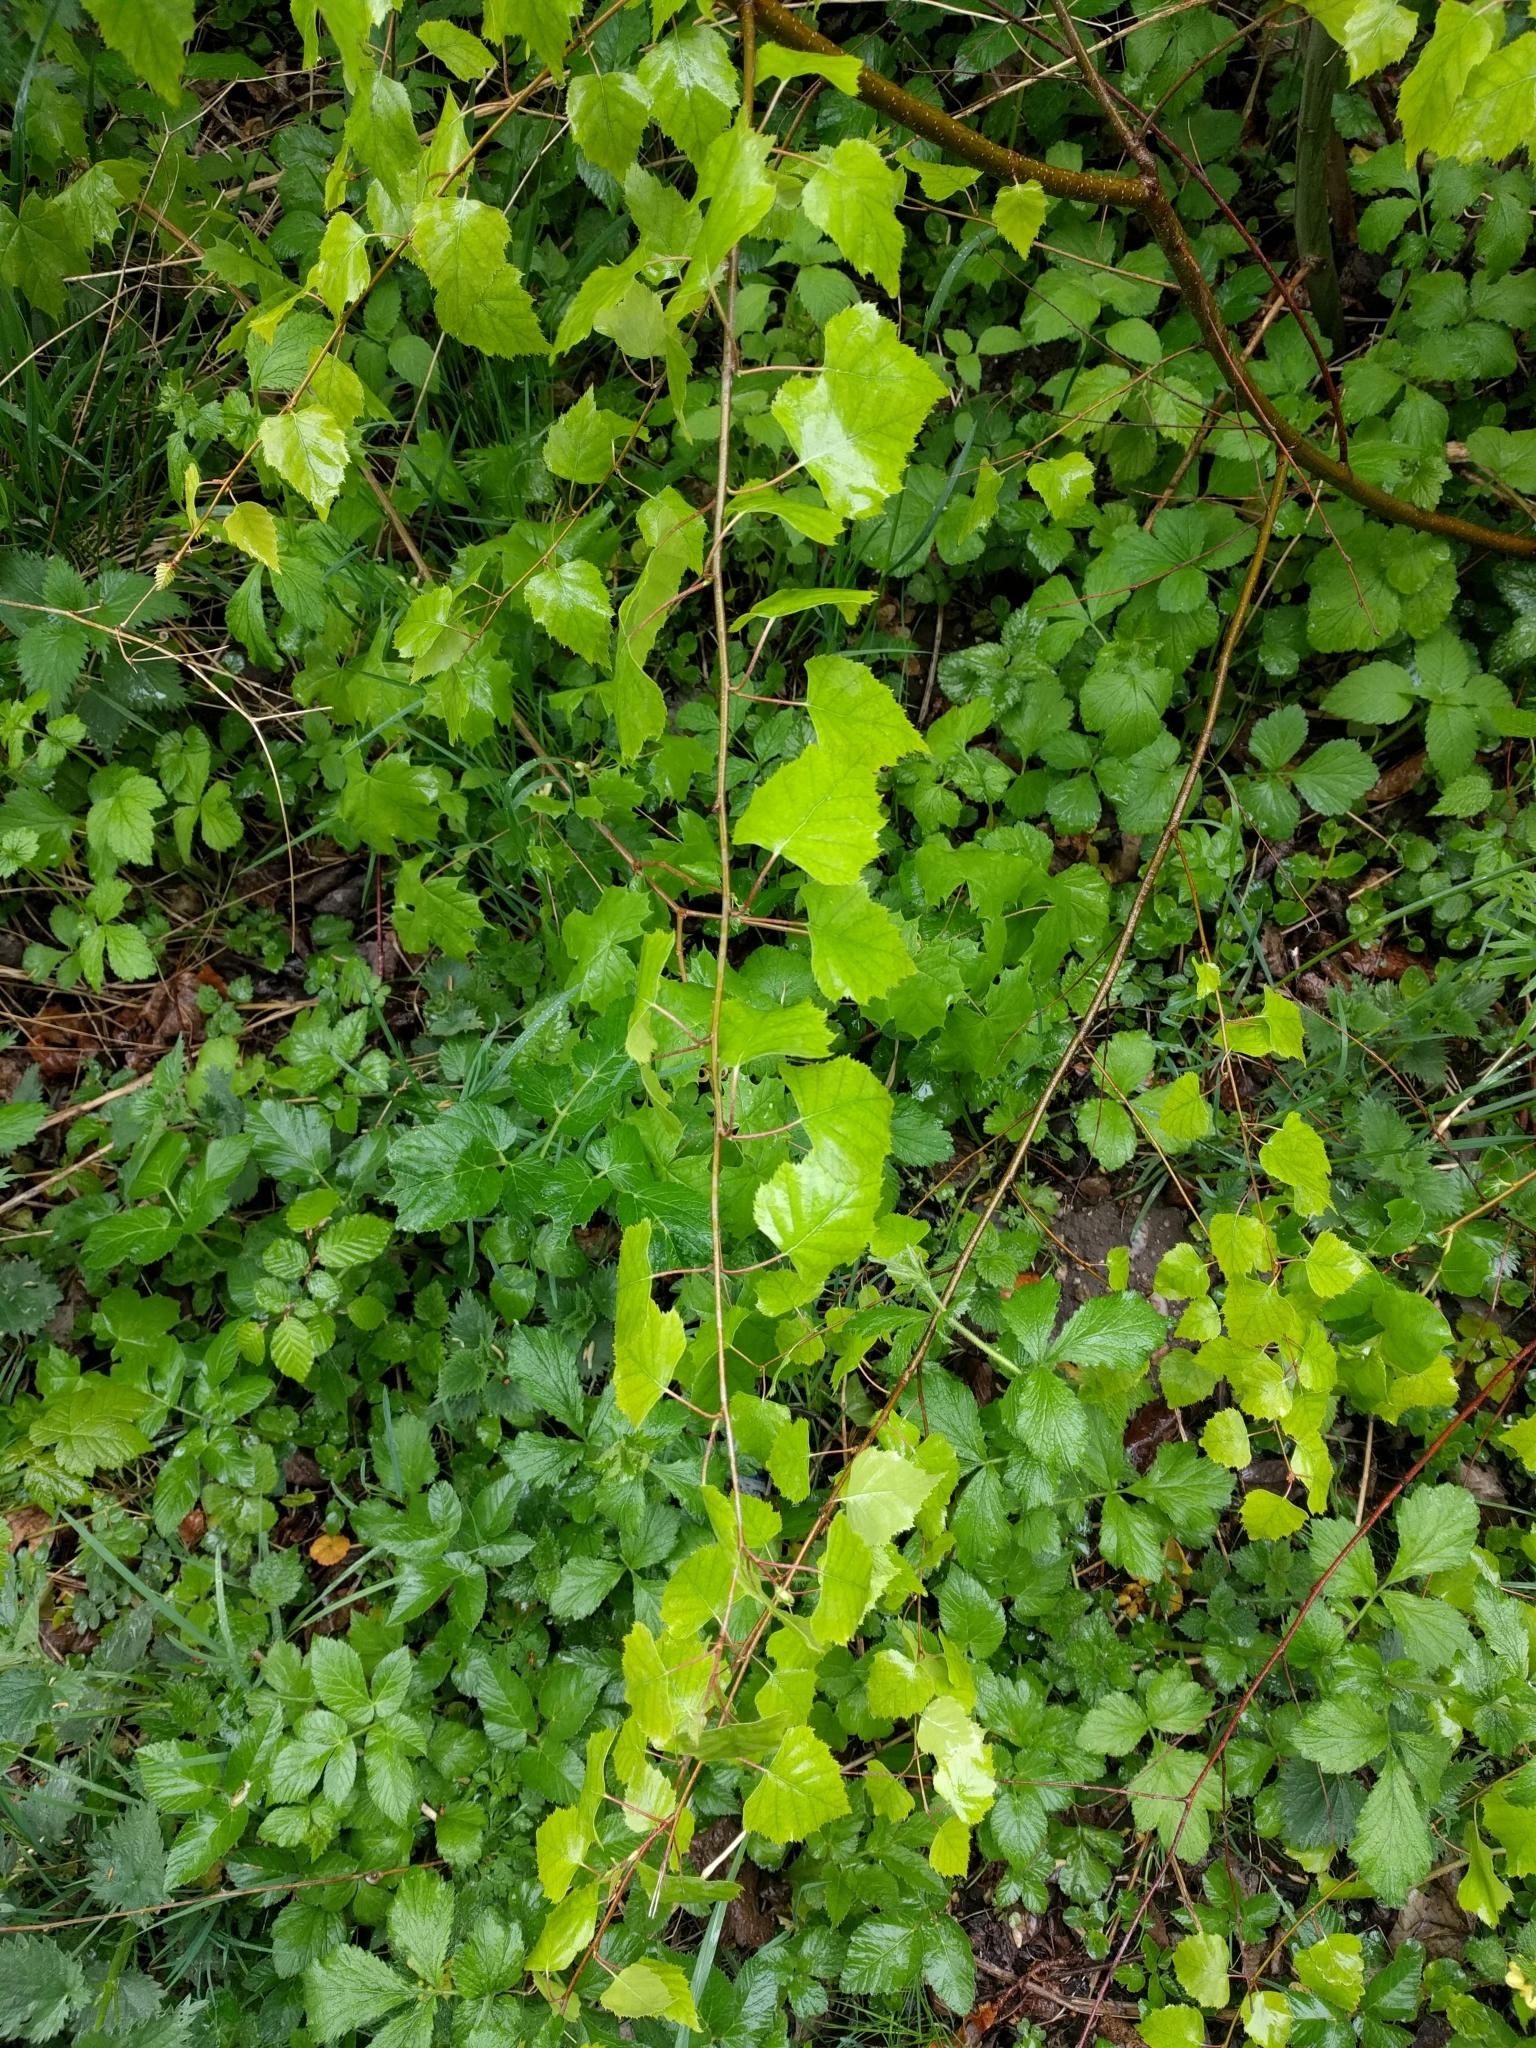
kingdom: Plantae
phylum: Tracheophyta
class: Magnoliopsida
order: Fagales
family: Betulaceae
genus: Betula
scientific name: Betula pendula
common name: Silver birch
